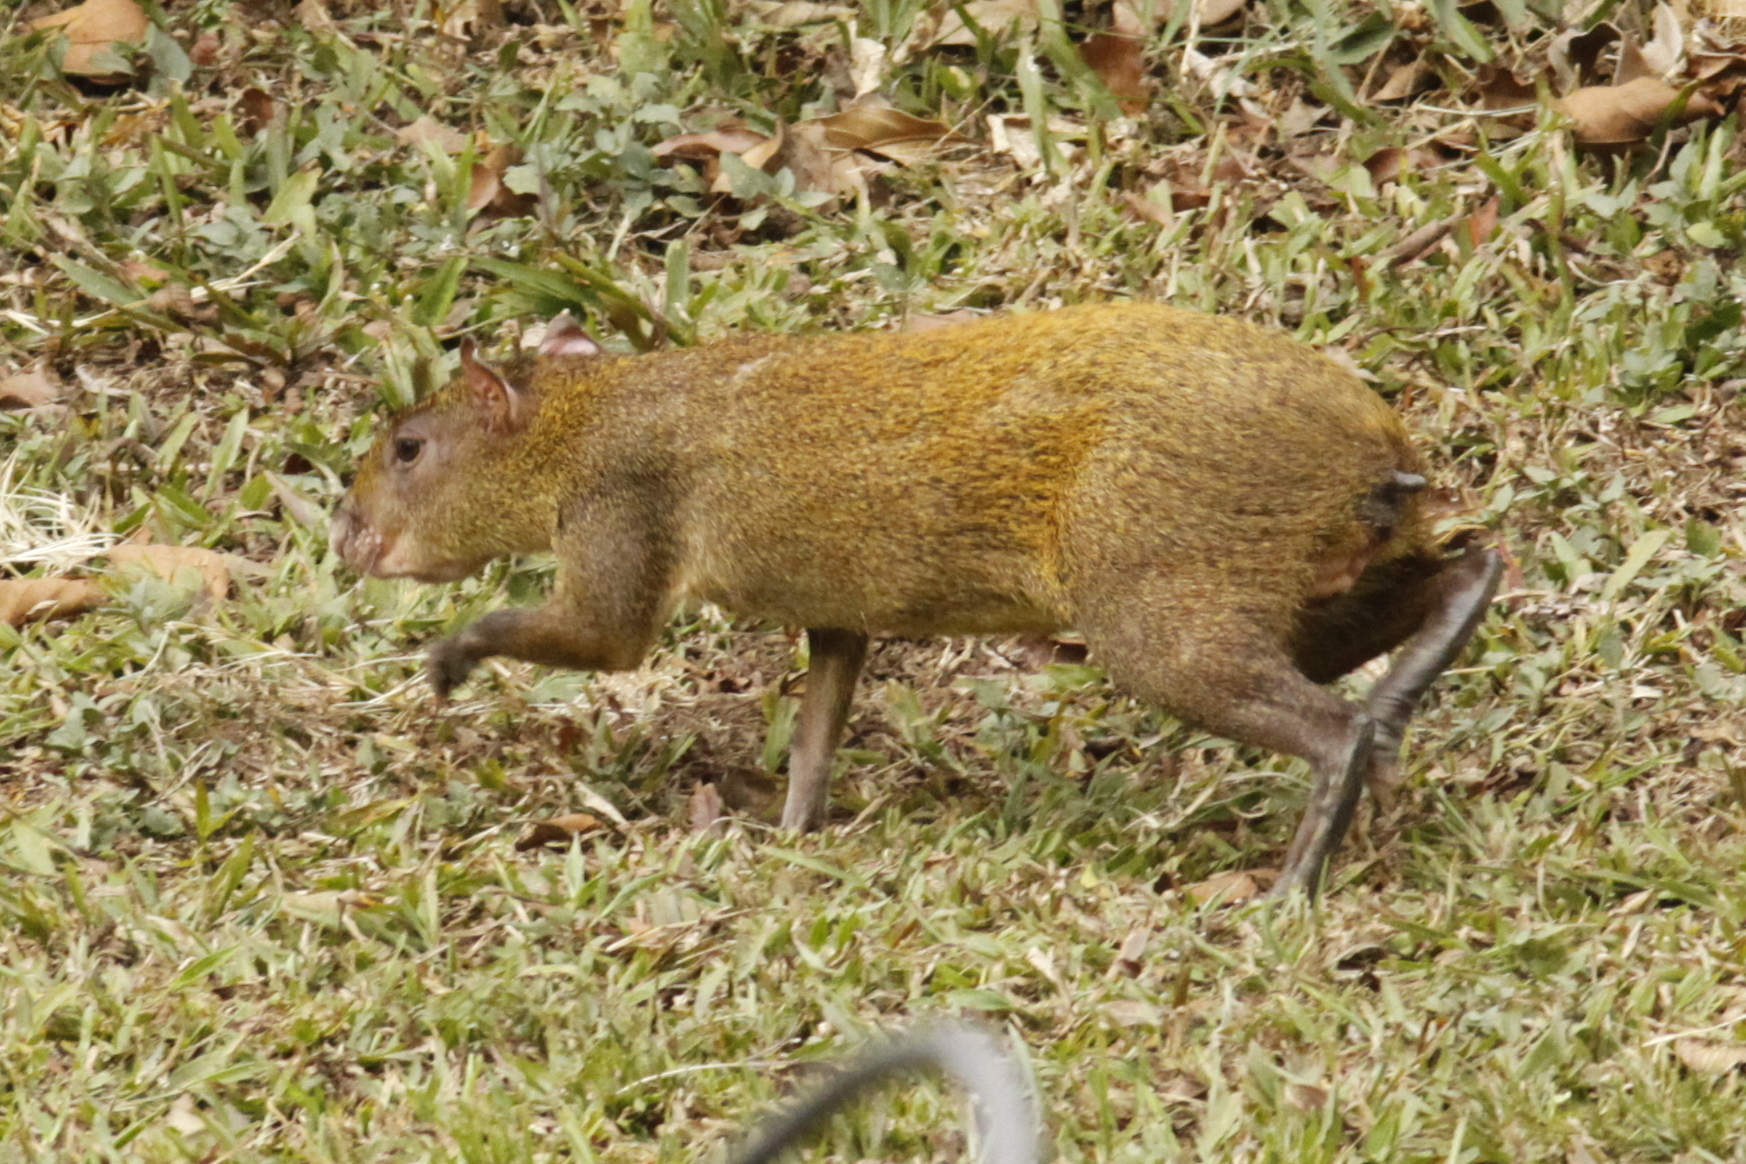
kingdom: Animalia
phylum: Chordata
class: Mammalia
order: Rodentia
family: Dasyproctidae
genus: Dasyprocta
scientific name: Dasyprocta punctata
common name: Central american agouti
